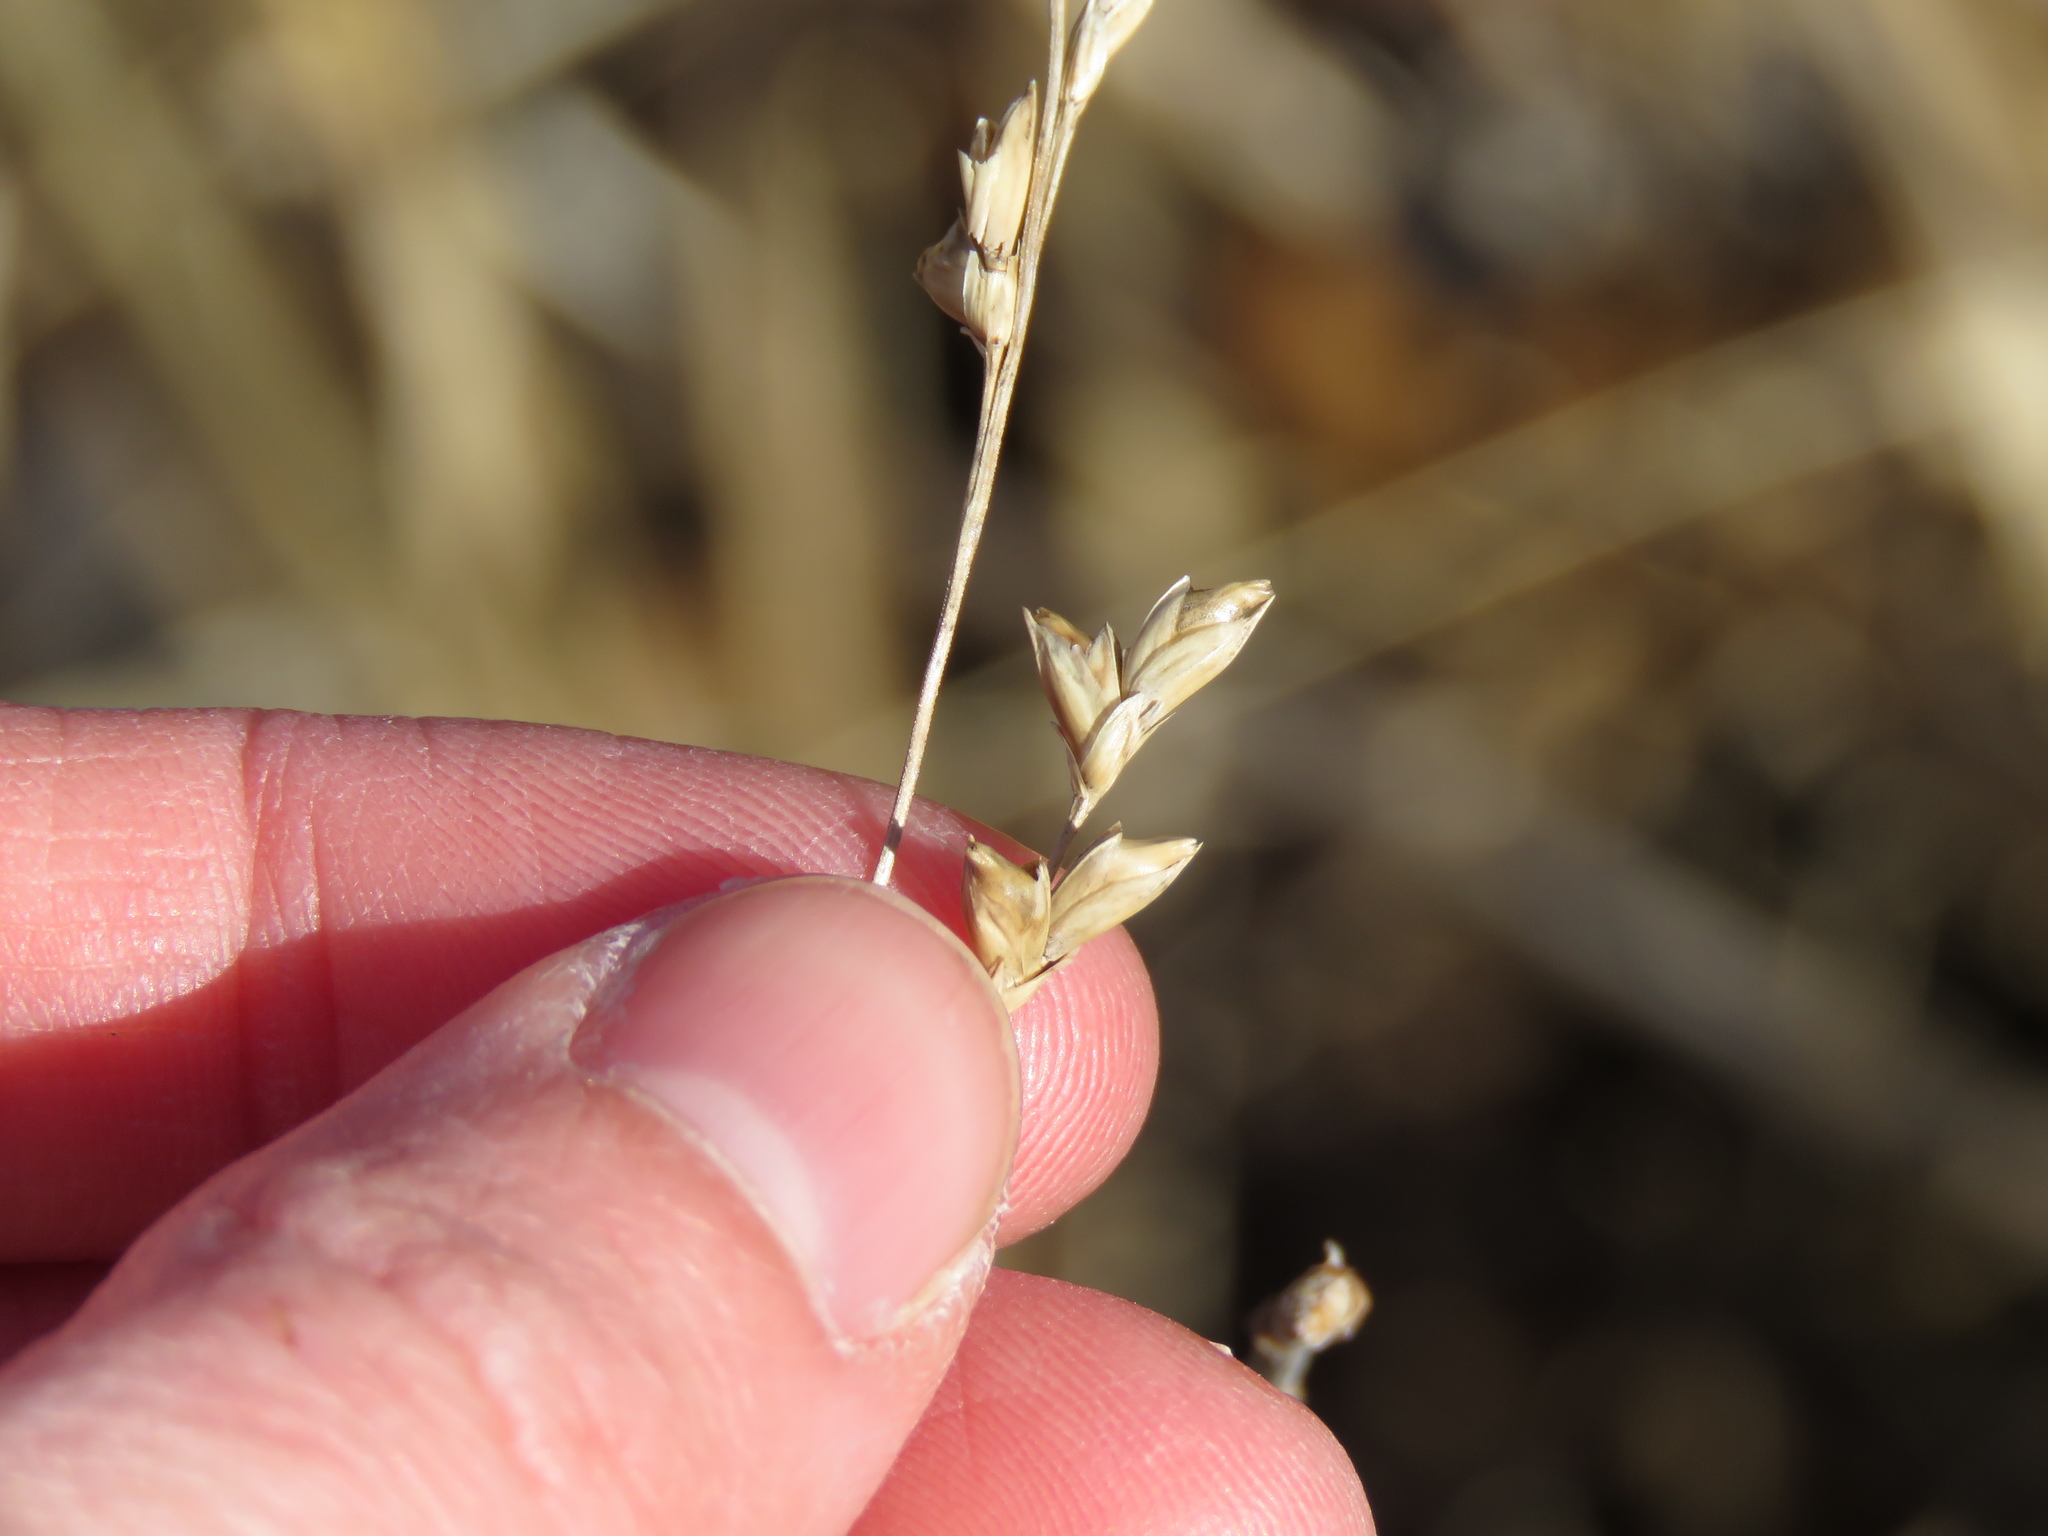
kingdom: Plantae
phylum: Tracheophyta
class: Liliopsida
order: Poales
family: Poaceae
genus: Diarrhena
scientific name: Diarrhena obovata
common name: Beakgrass
